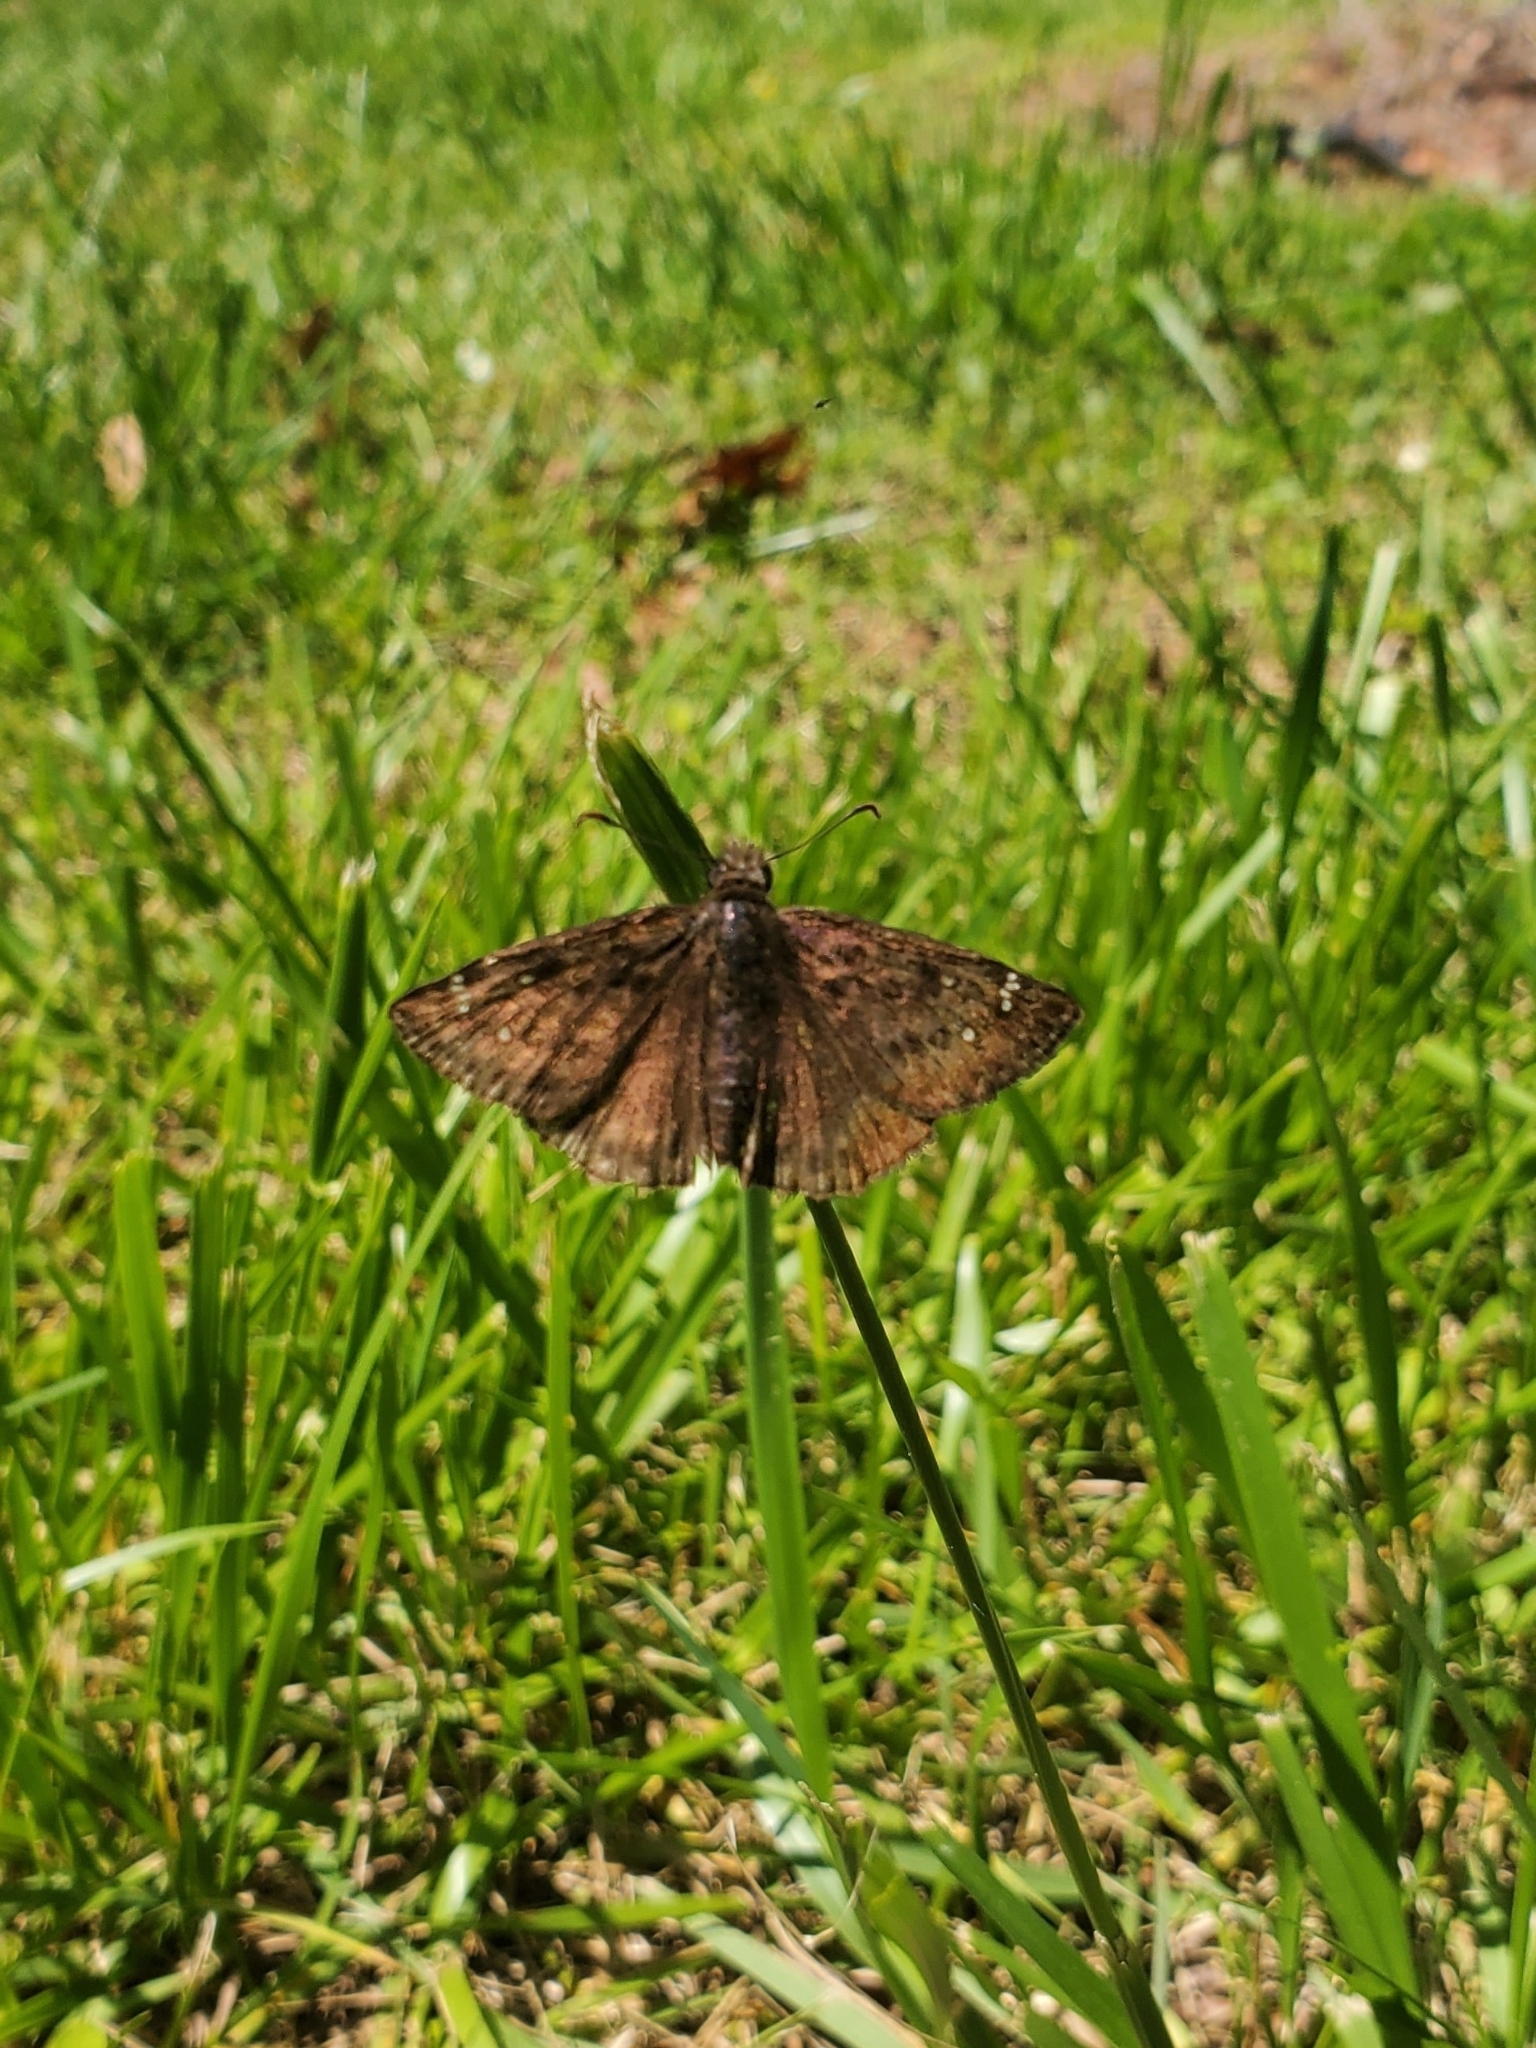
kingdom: Animalia
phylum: Arthropoda
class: Insecta
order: Lepidoptera
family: Hesperiidae
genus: Erynnis
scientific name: Erynnis horatius
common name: Horace's duskywing
